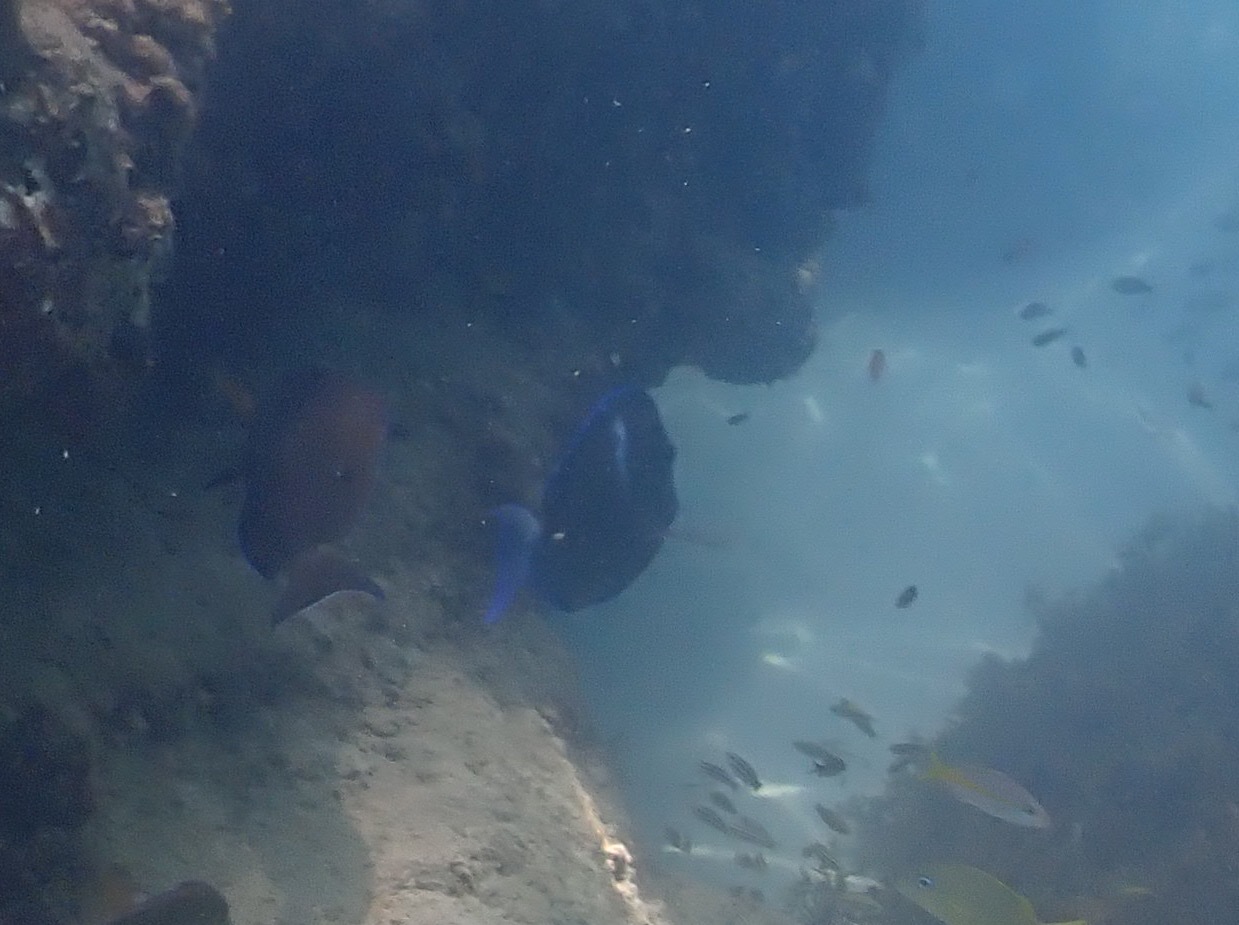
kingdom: Animalia
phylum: Chordata
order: Perciformes
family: Acanthuridae
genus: Acanthurus
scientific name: Acanthurus coeruleus
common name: Blue tang
